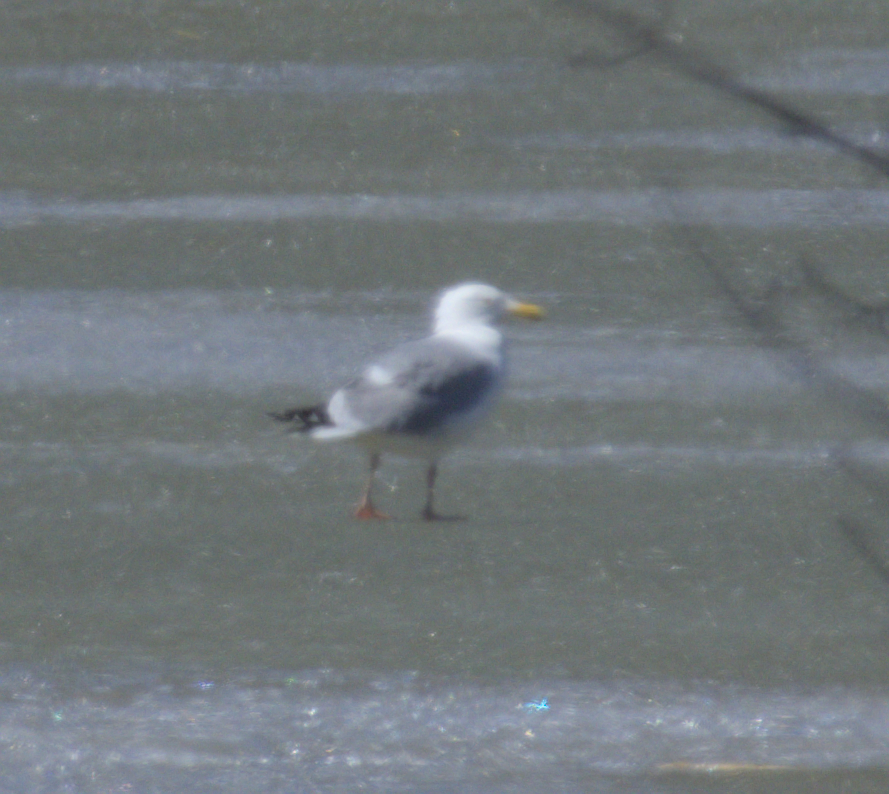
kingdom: Animalia
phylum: Chordata
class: Aves
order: Charadriiformes
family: Laridae
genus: Larus
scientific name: Larus argentatus
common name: Herring gull
